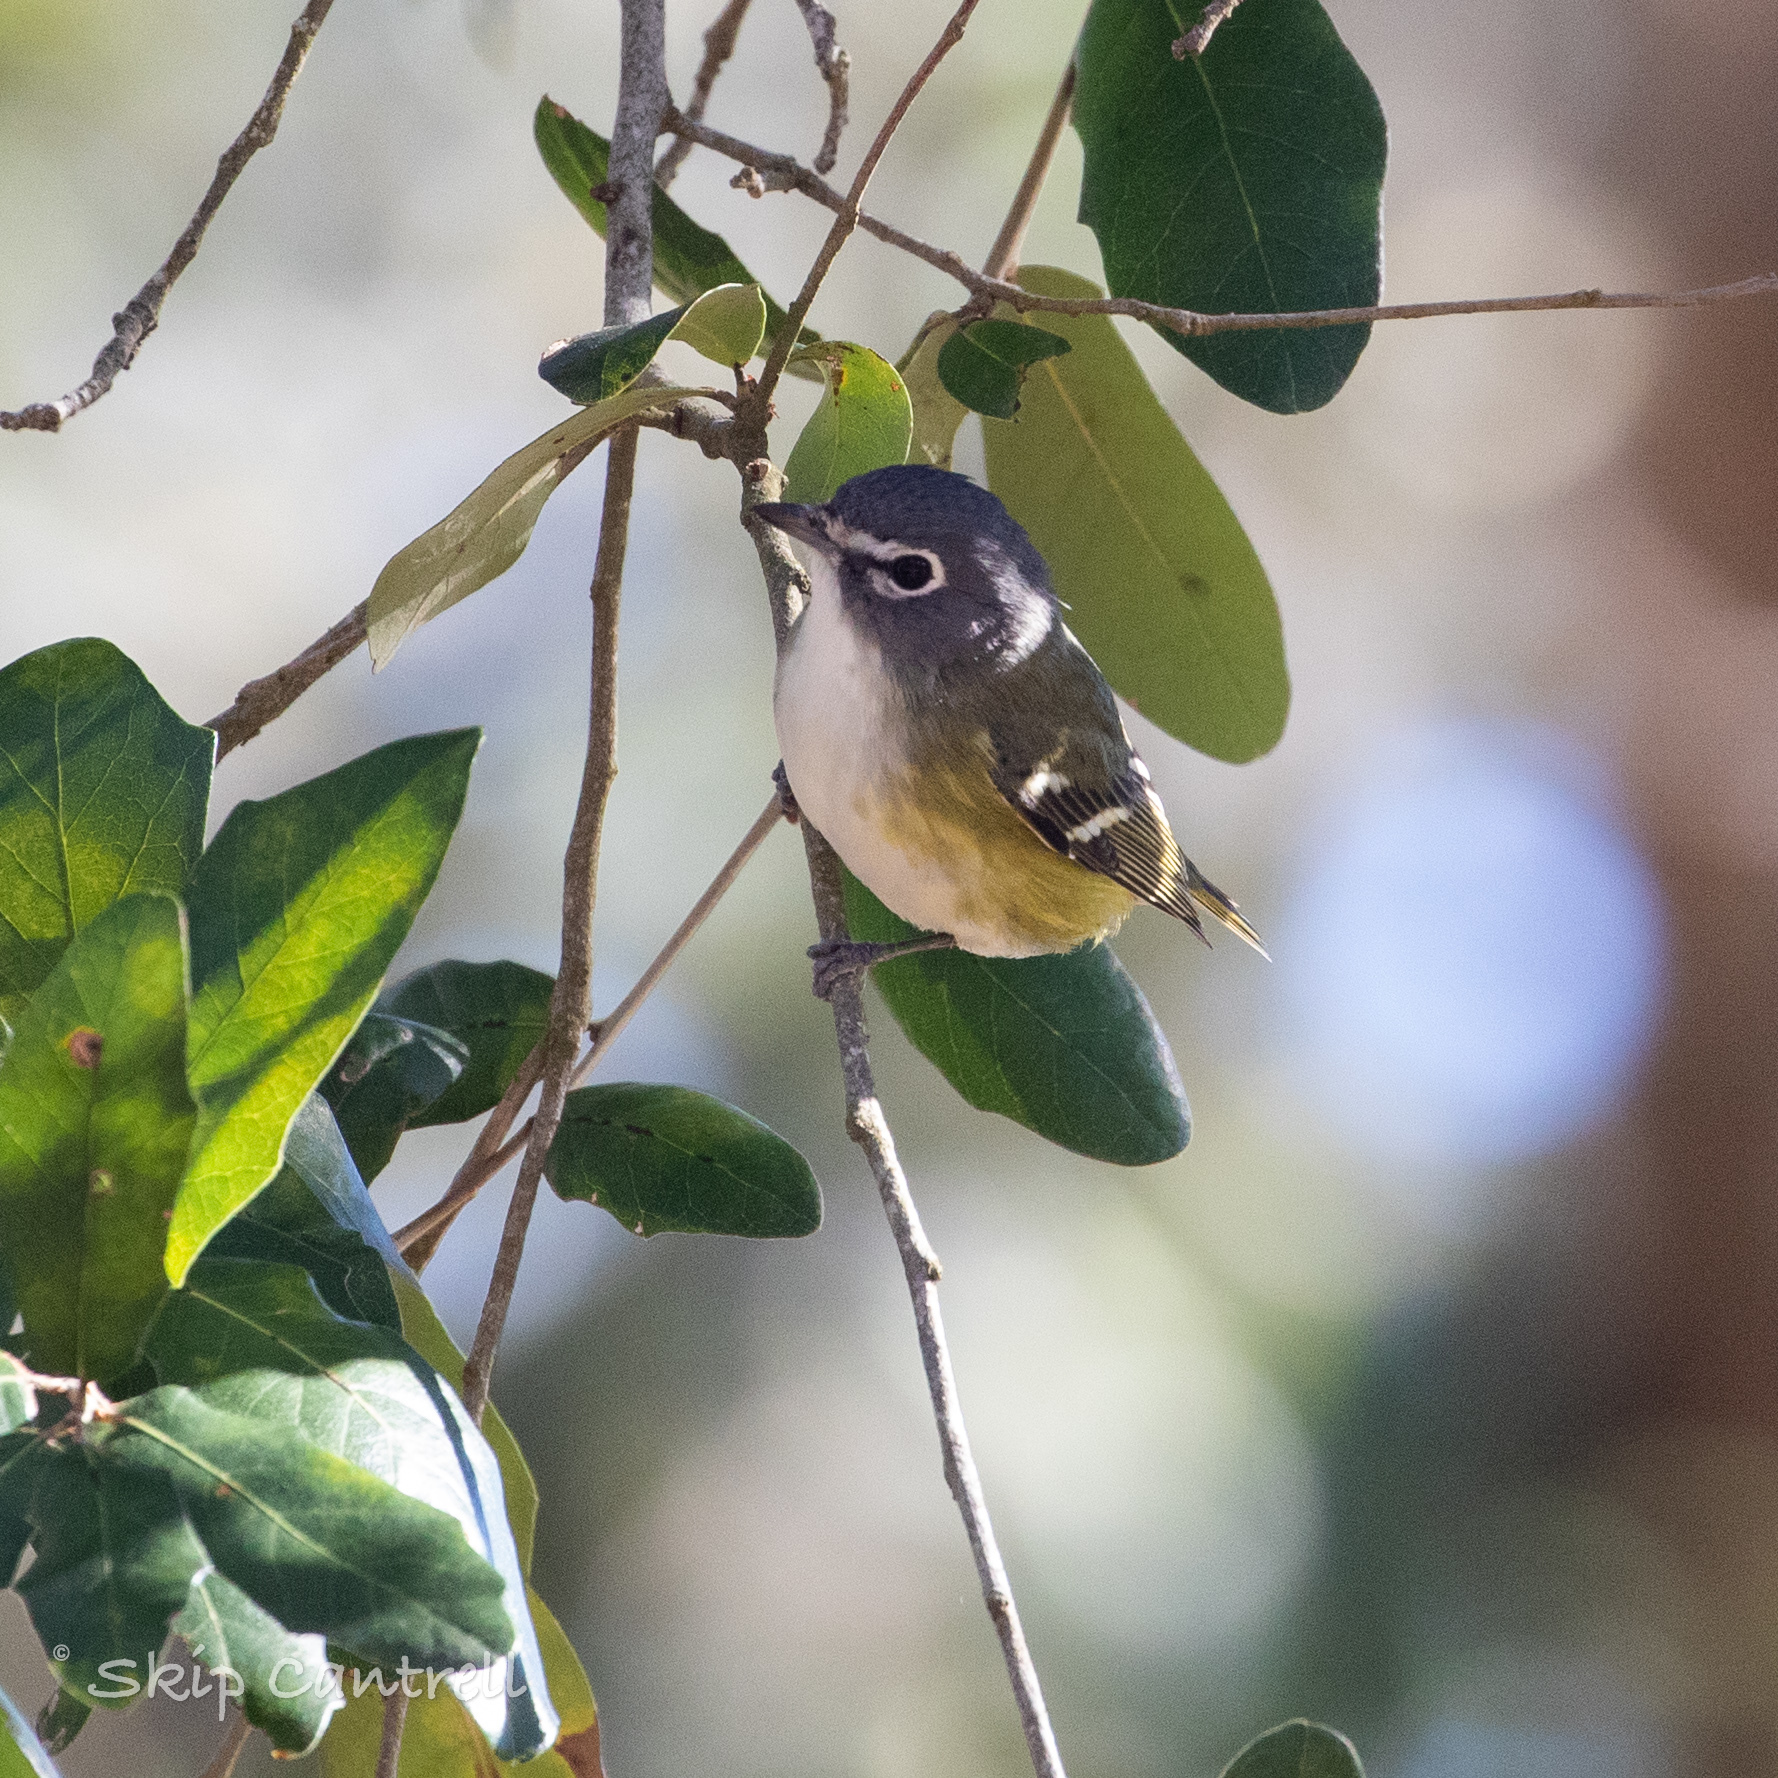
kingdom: Animalia
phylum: Chordata
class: Aves
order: Passeriformes
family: Vireonidae
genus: Vireo
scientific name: Vireo solitarius
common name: Blue-headed vireo
